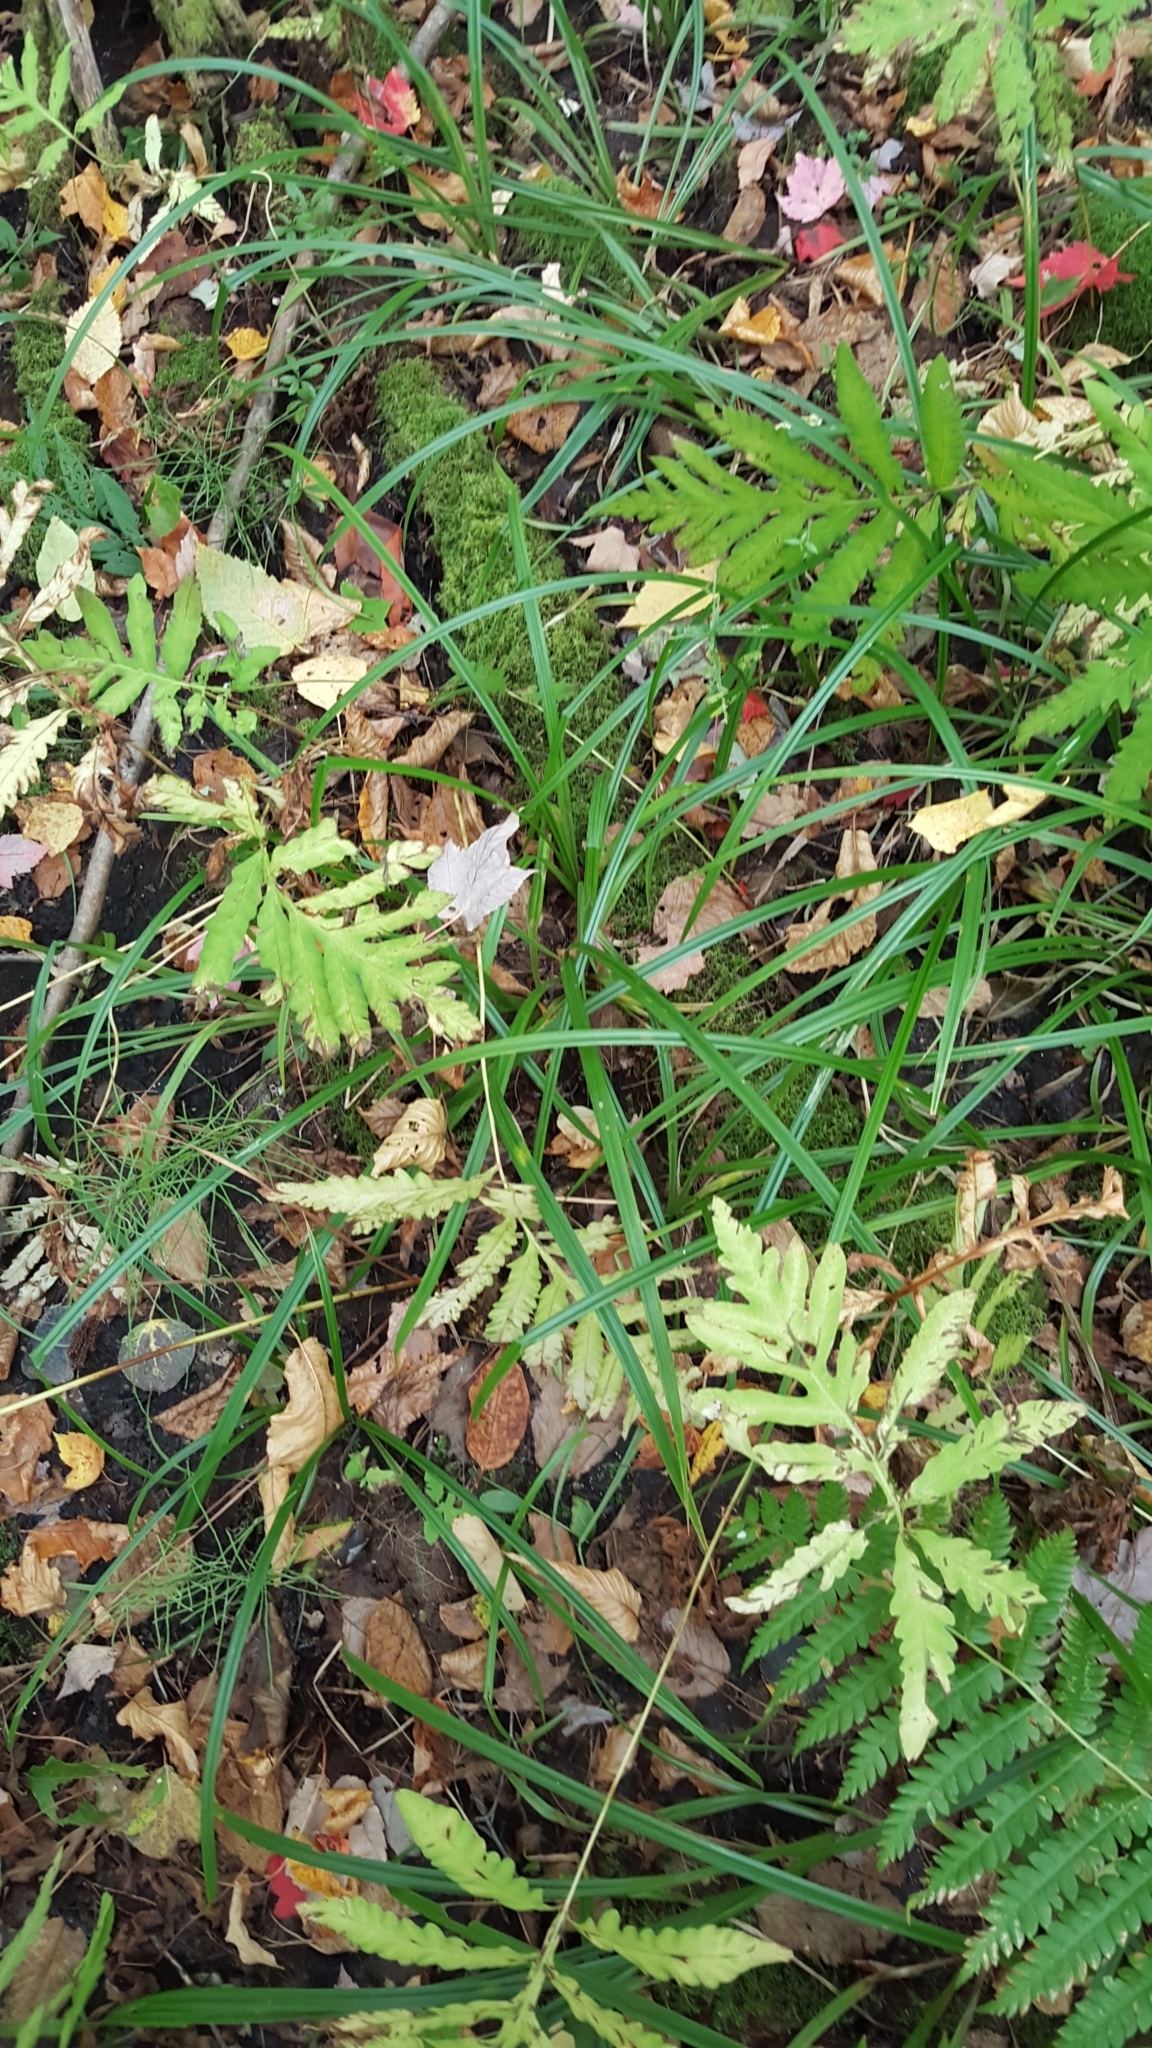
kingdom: Plantae
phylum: Tracheophyta
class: Liliopsida
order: Poales
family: Cyperaceae
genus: Carex
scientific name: Carex scabrata
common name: Eastern rough sedge
